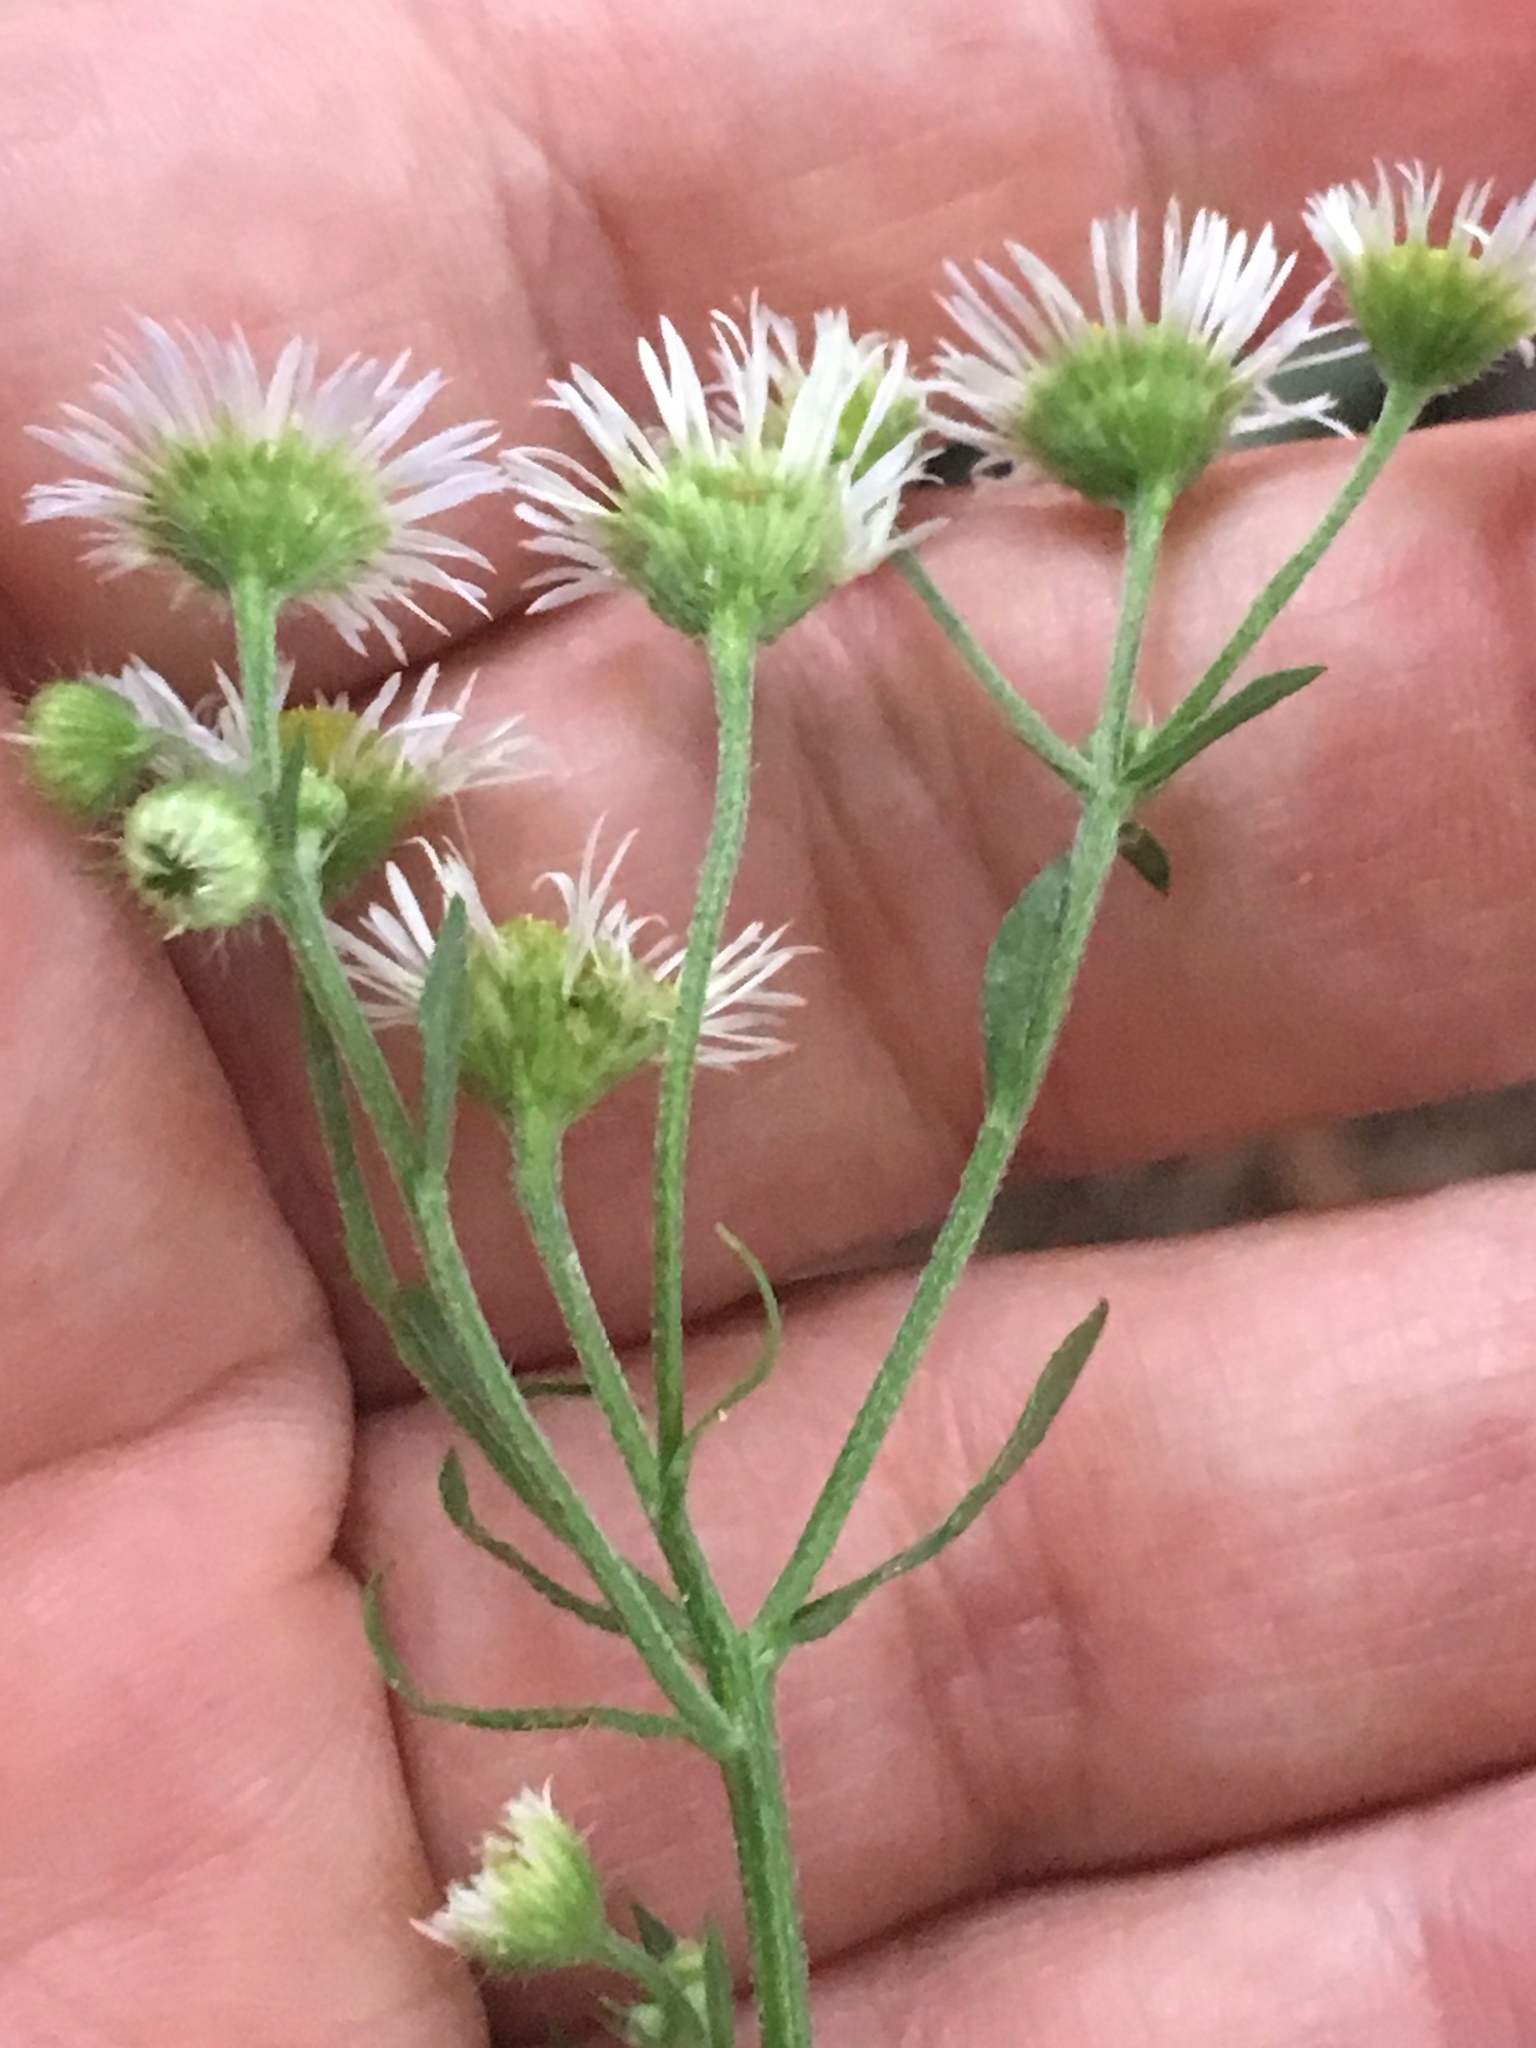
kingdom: Plantae
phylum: Tracheophyta
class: Magnoliopsida
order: Asterales
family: Asteraceae
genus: Erigeron
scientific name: Erigeron strigosus
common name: Common eastern fleabane
